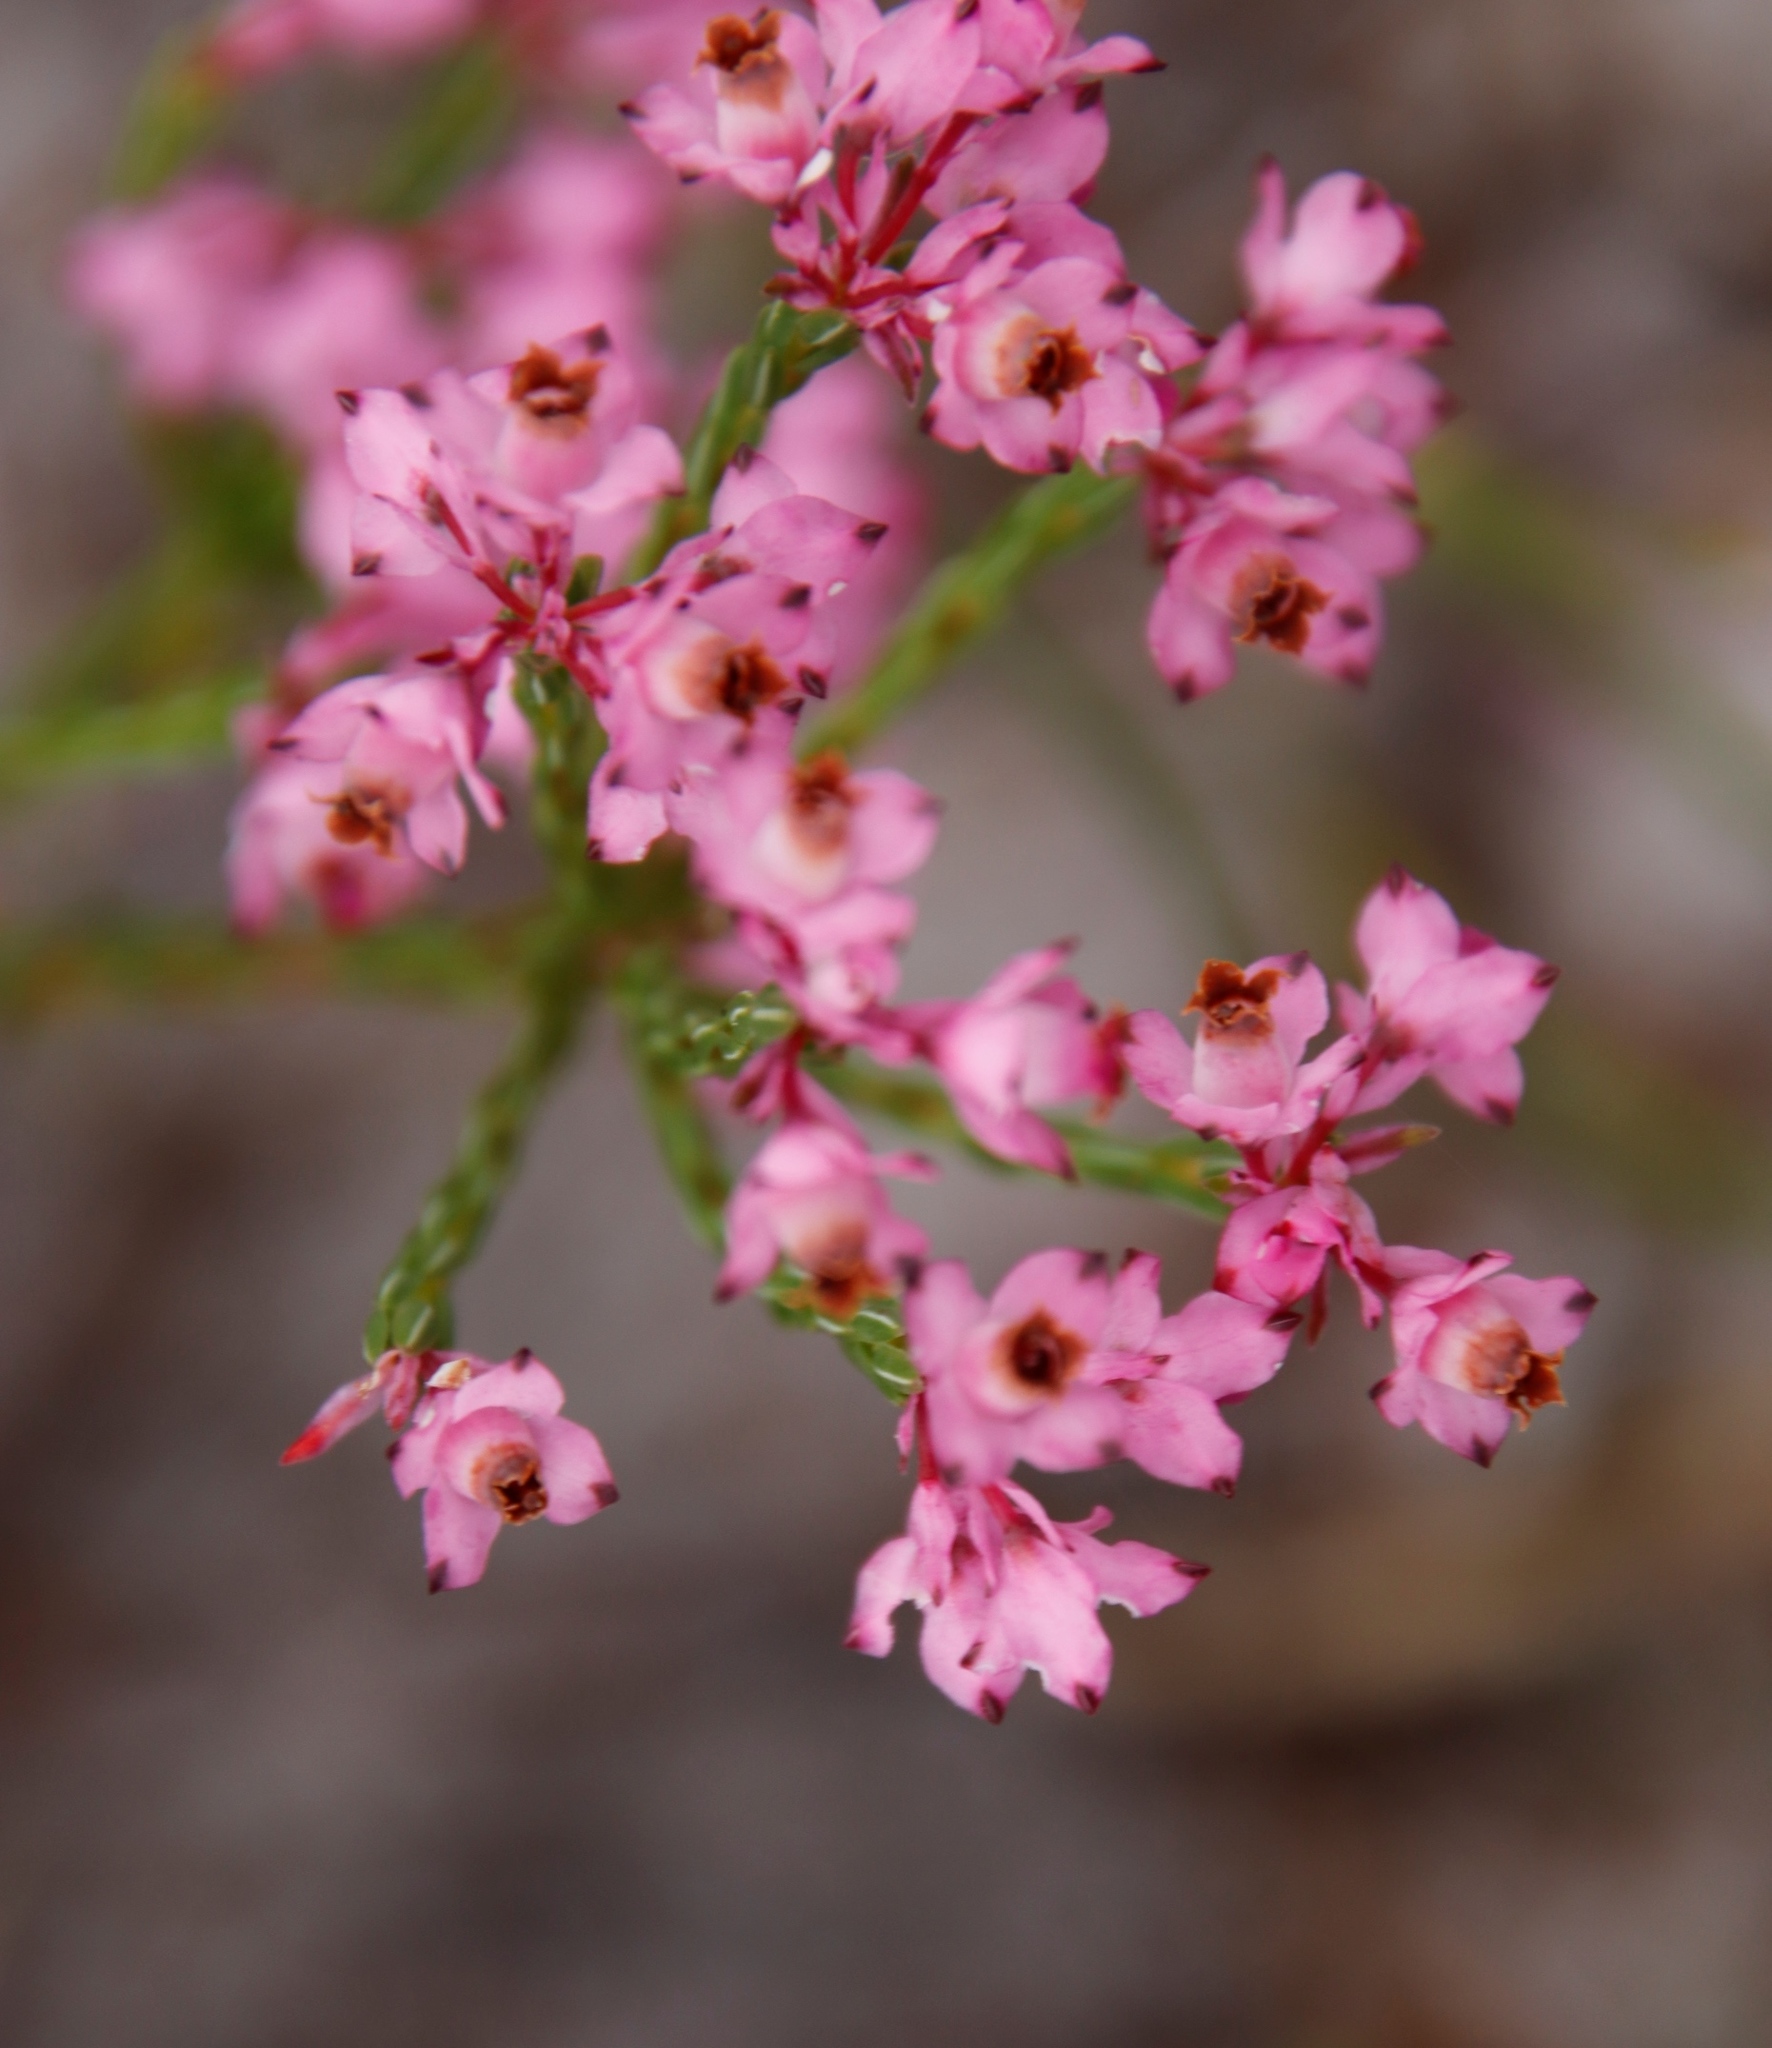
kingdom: Plantae
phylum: Tracheophyta
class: Magnoliopsida
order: Ericales
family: Ericaceae
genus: Erica
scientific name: Erica corifolia
